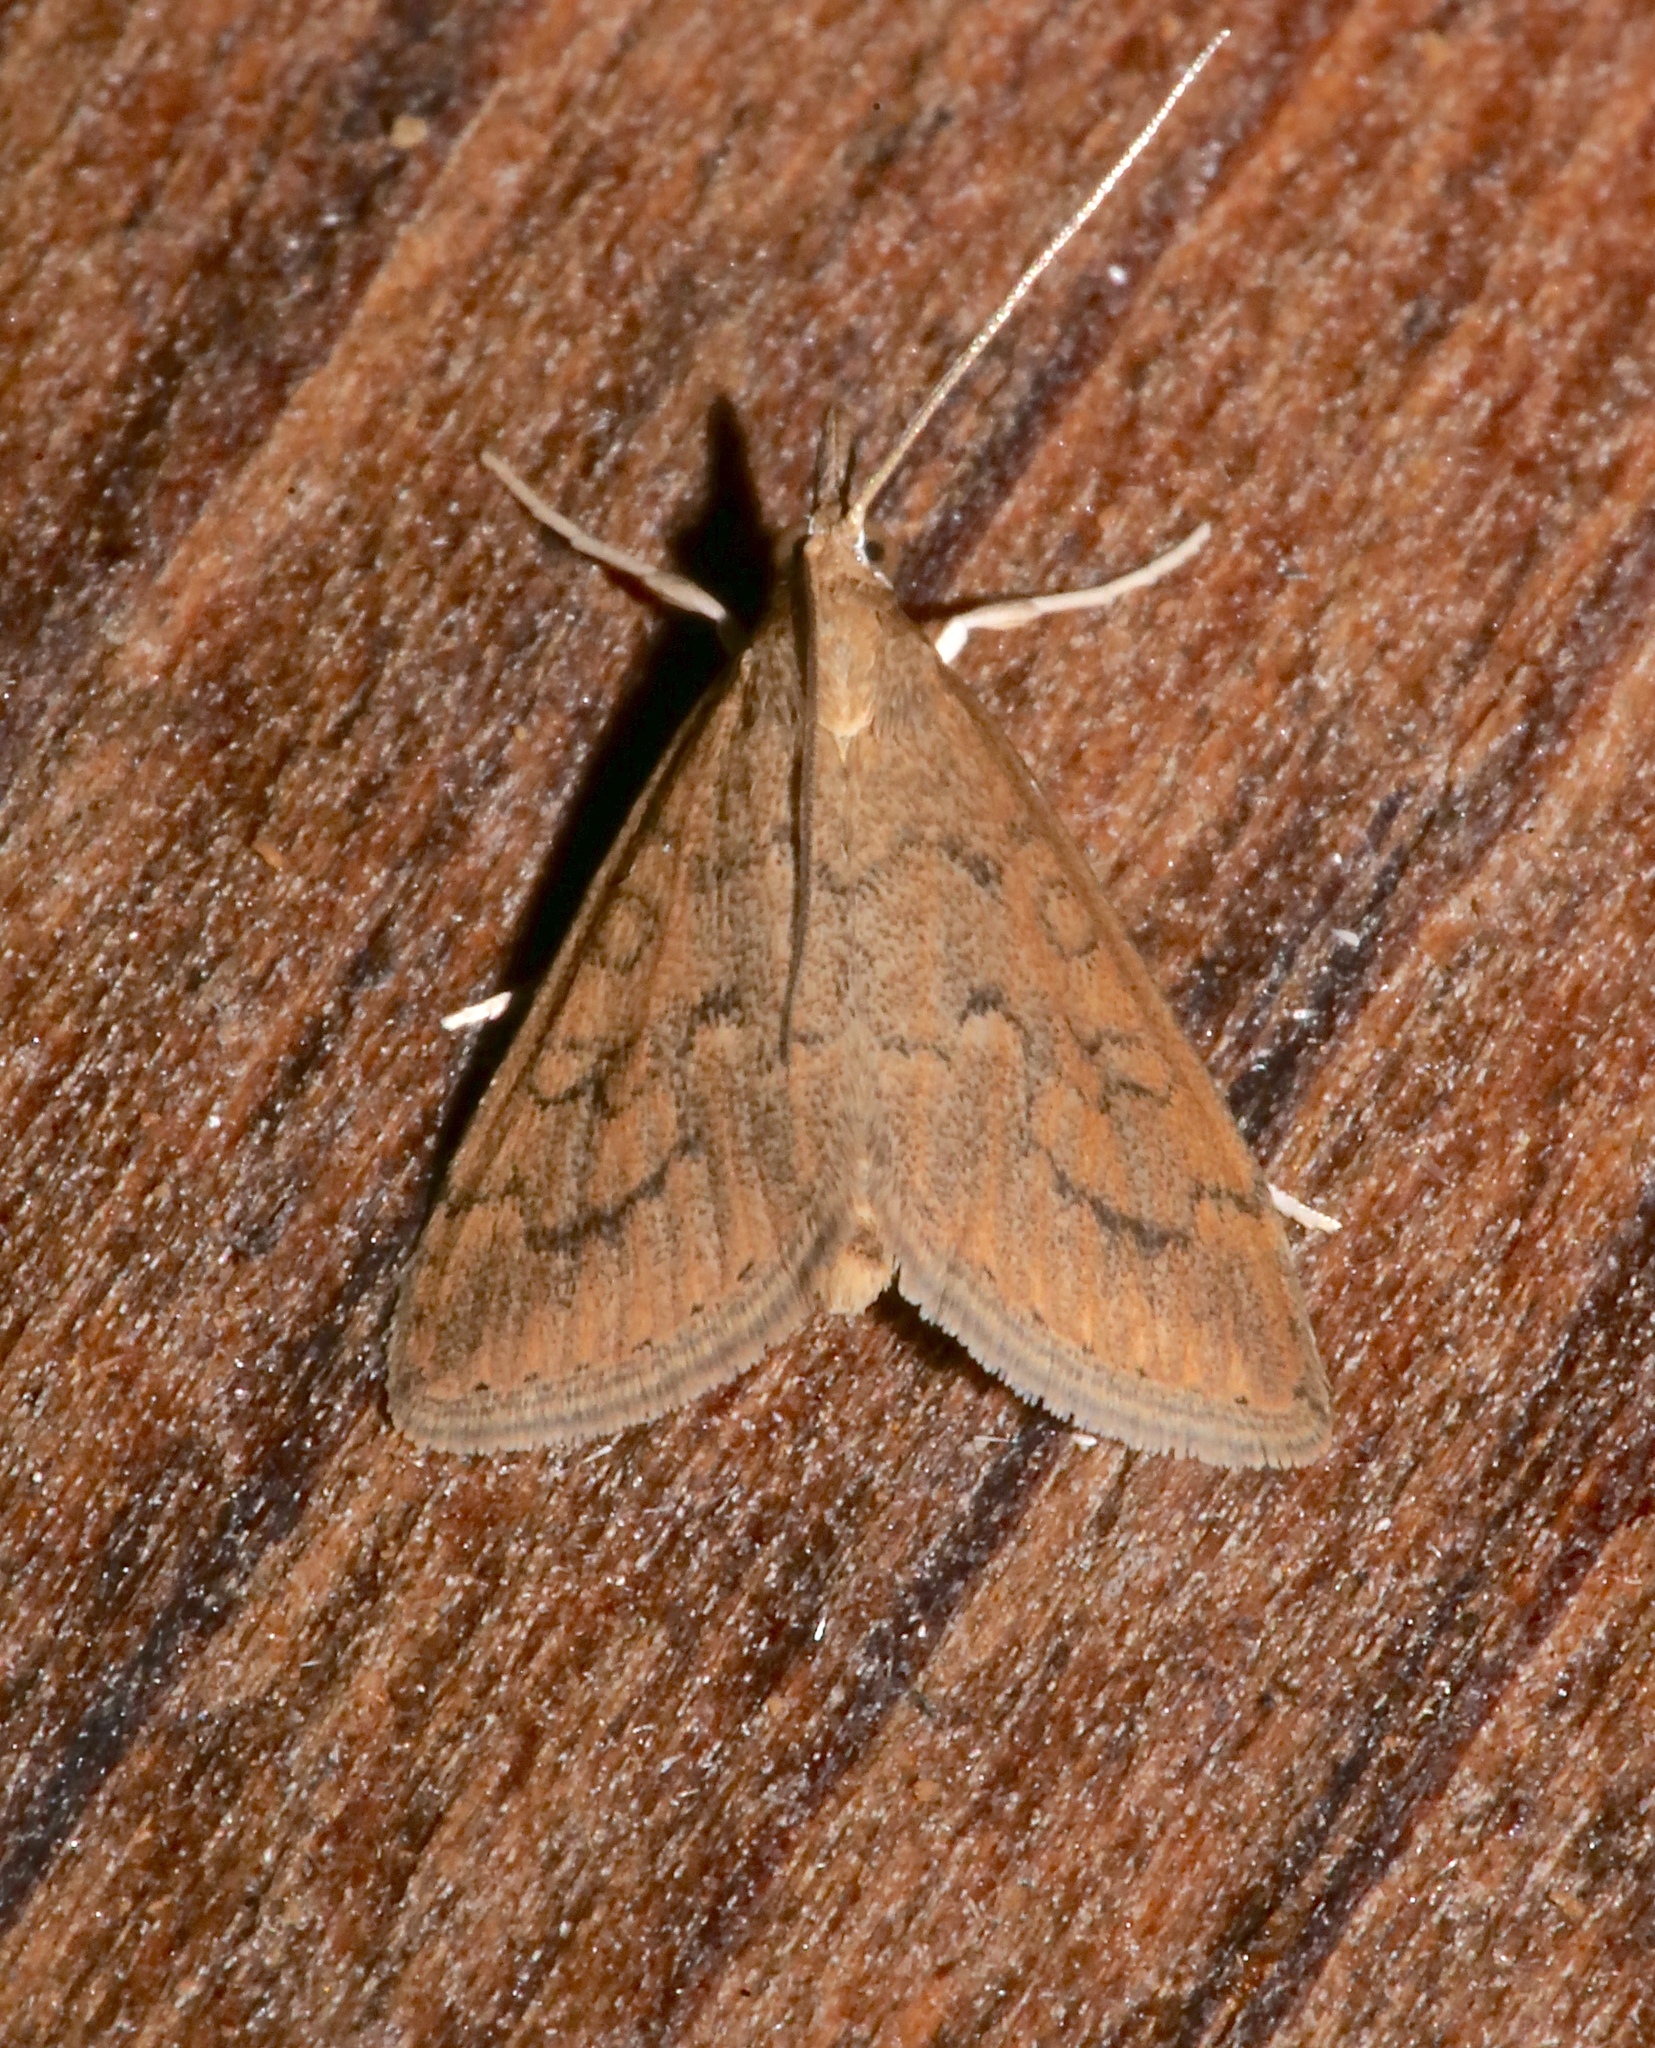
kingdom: Animalia
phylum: Arthropoda
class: Insecta
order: Lepidoptera
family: Crambidae
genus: Udea
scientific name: Udea rubigalis
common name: Celery leaftier moth
